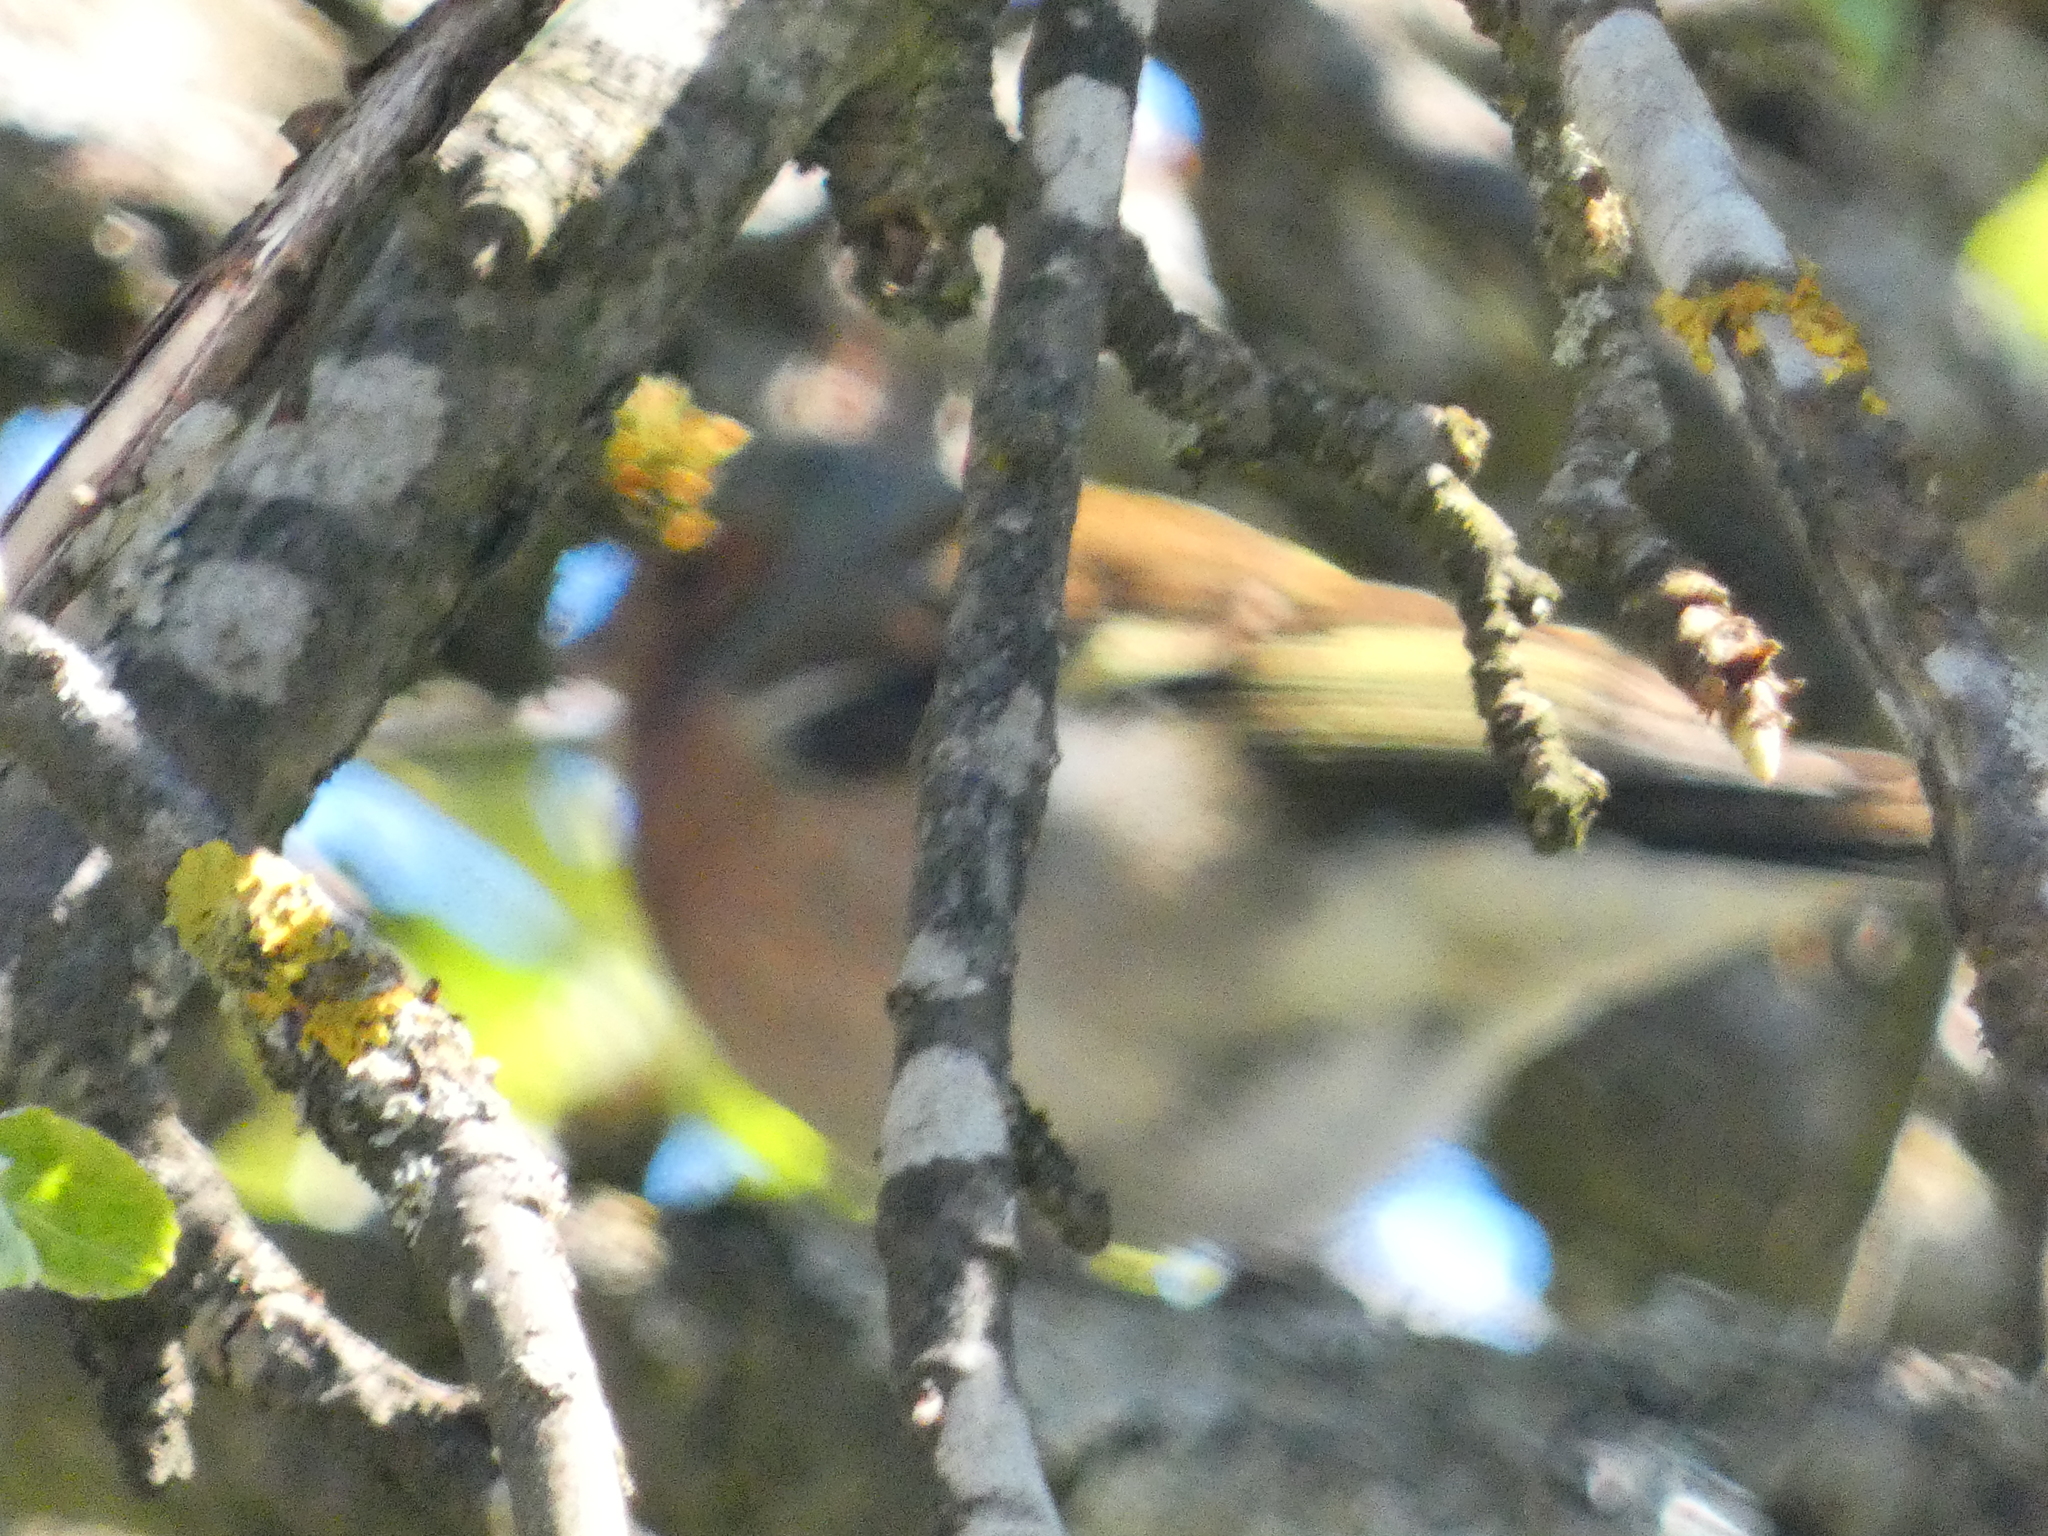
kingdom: Animalia
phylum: Chordata
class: Aves
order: Passeriformes
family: Fringillidae
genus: Fringilla
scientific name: Fringilla coelebs
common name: Common chaffinch
